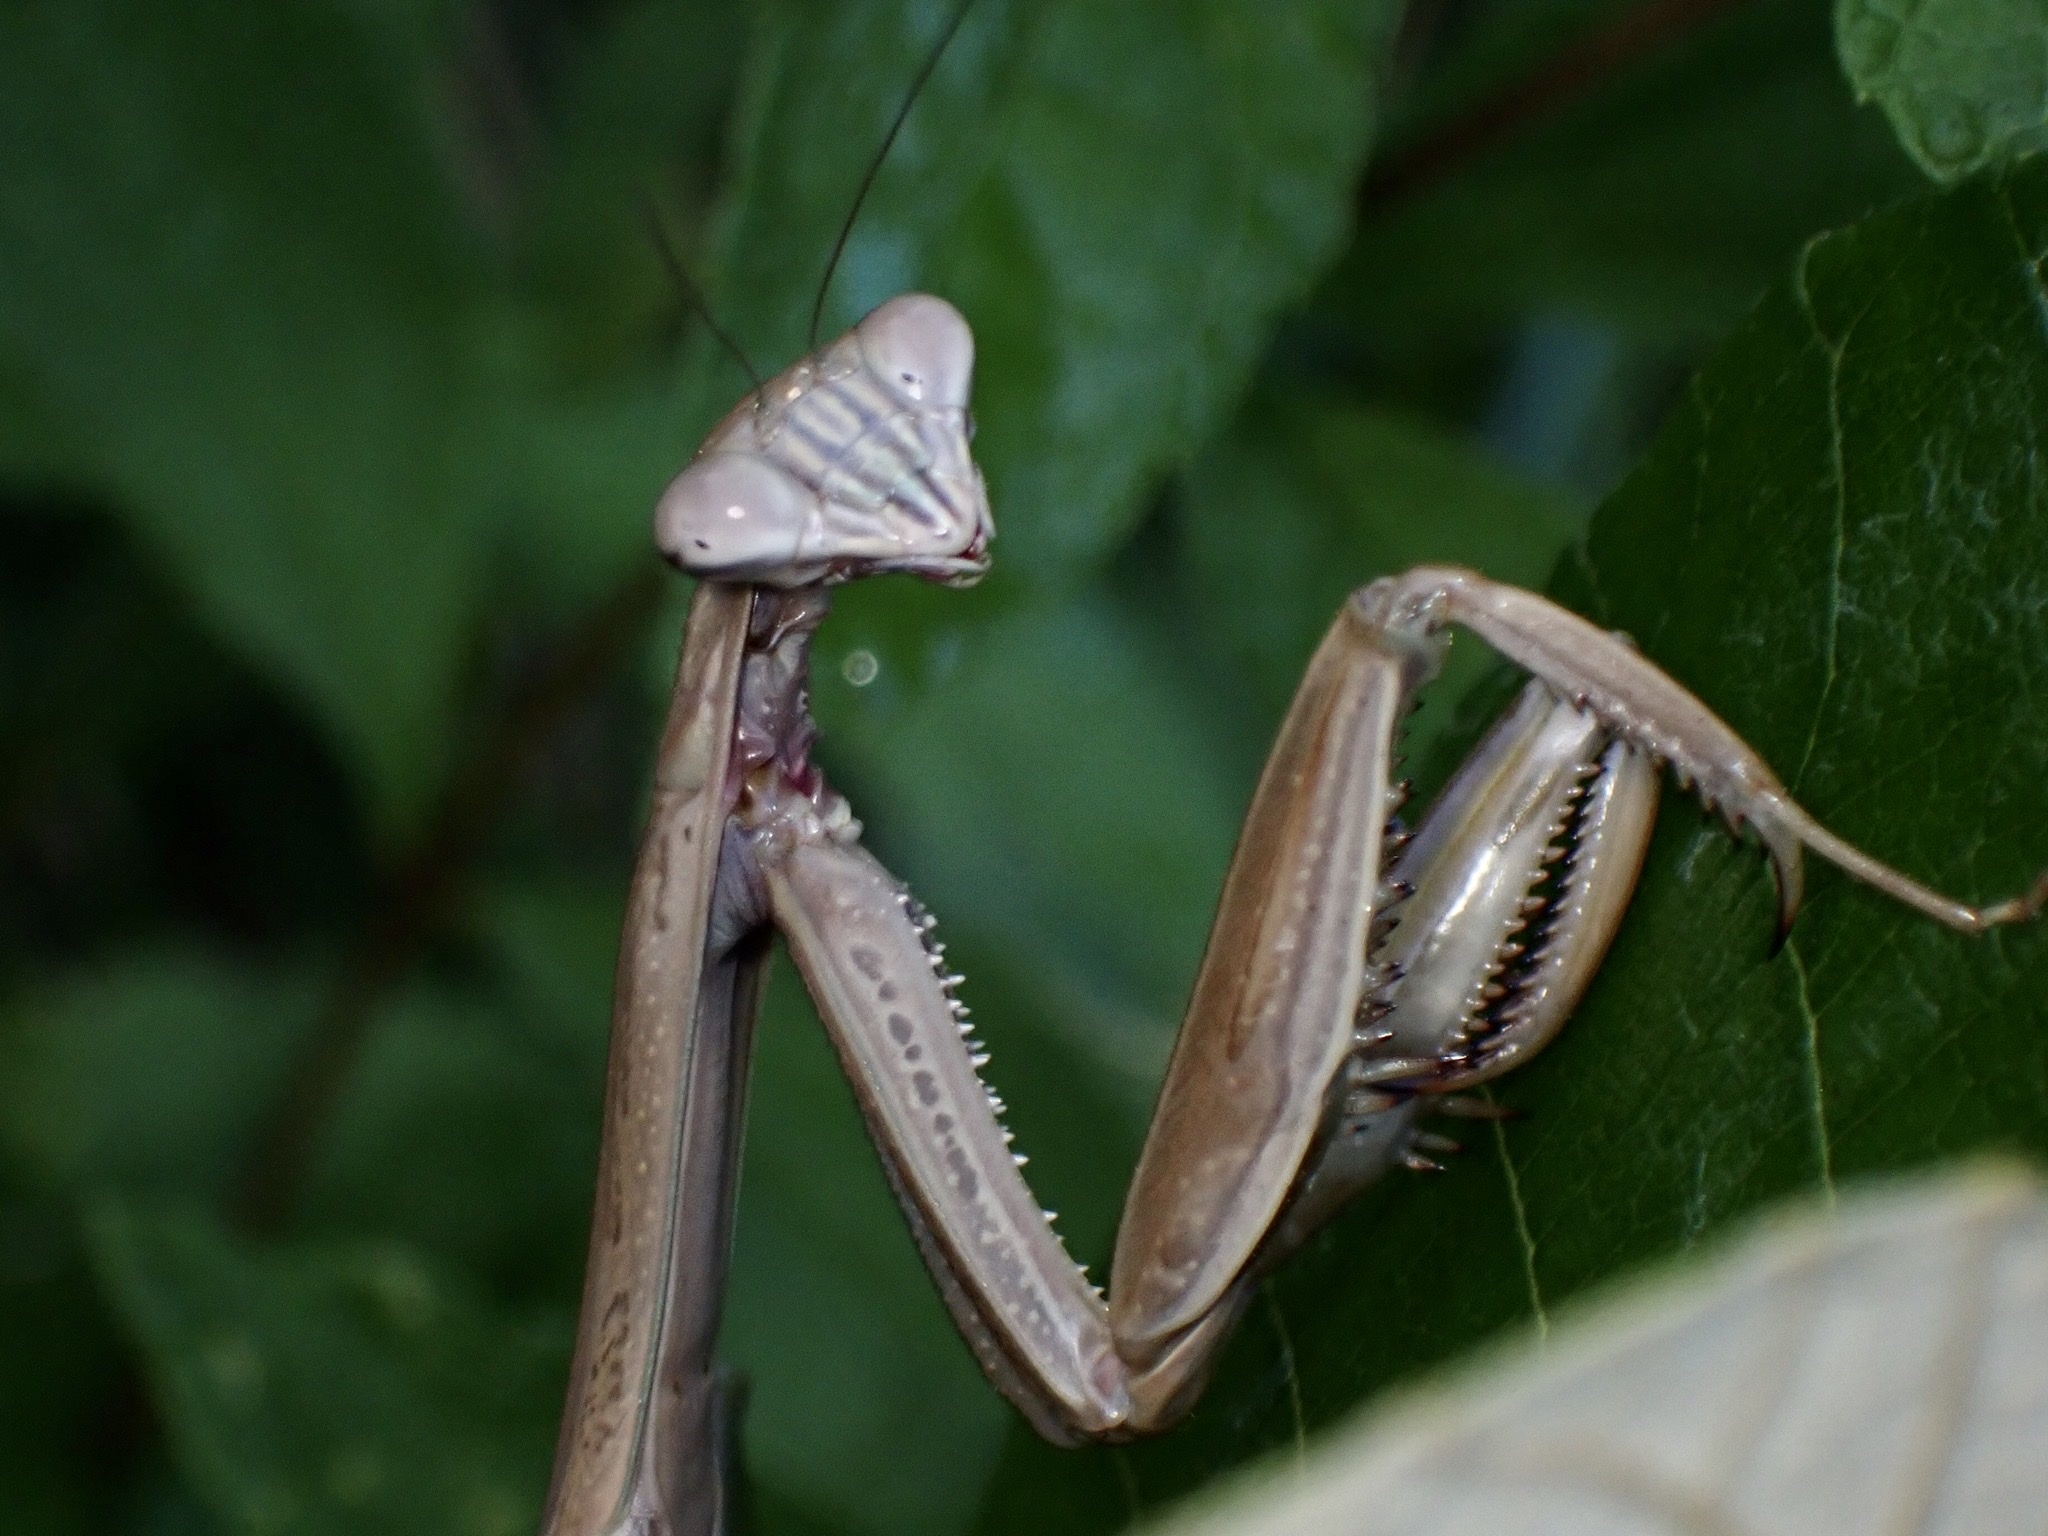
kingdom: Animalia
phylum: Arthropoda
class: Insecta
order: Mantodea
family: Mantidae
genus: Tenodera
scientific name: Tenodera sinensis
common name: Chinese mantis
